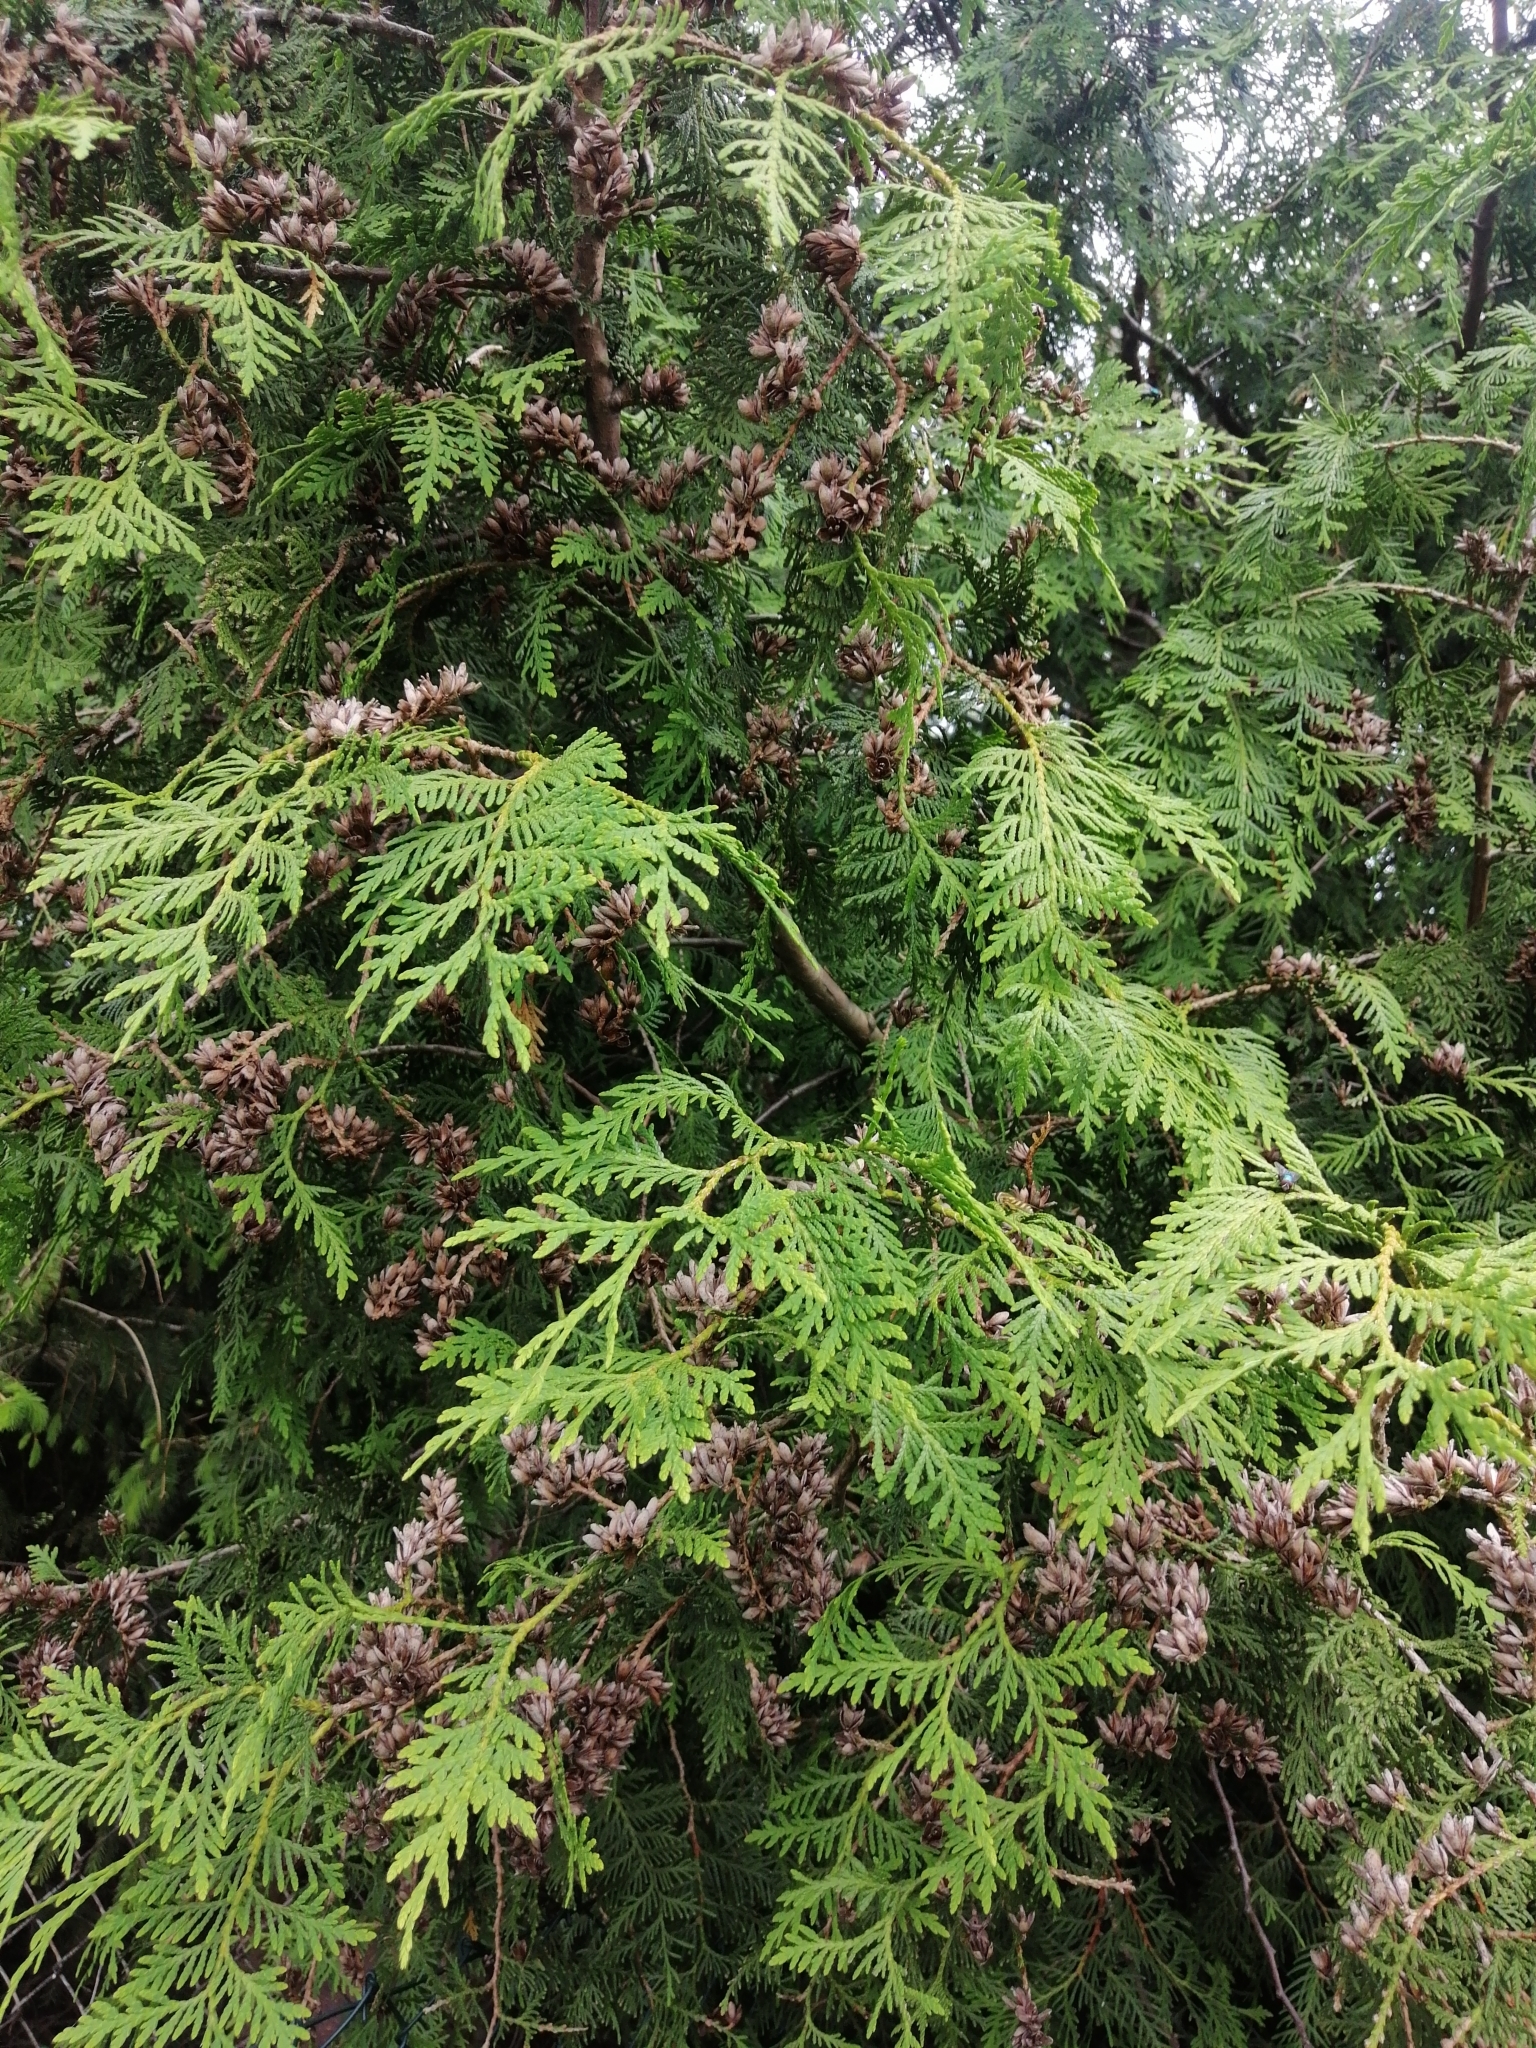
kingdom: Plantae
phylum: Tracheophyta
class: Pinopsida
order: Pinales
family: Cupressaceae
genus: Thuja
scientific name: Thuja occidentalis
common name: Northern white-cedar
